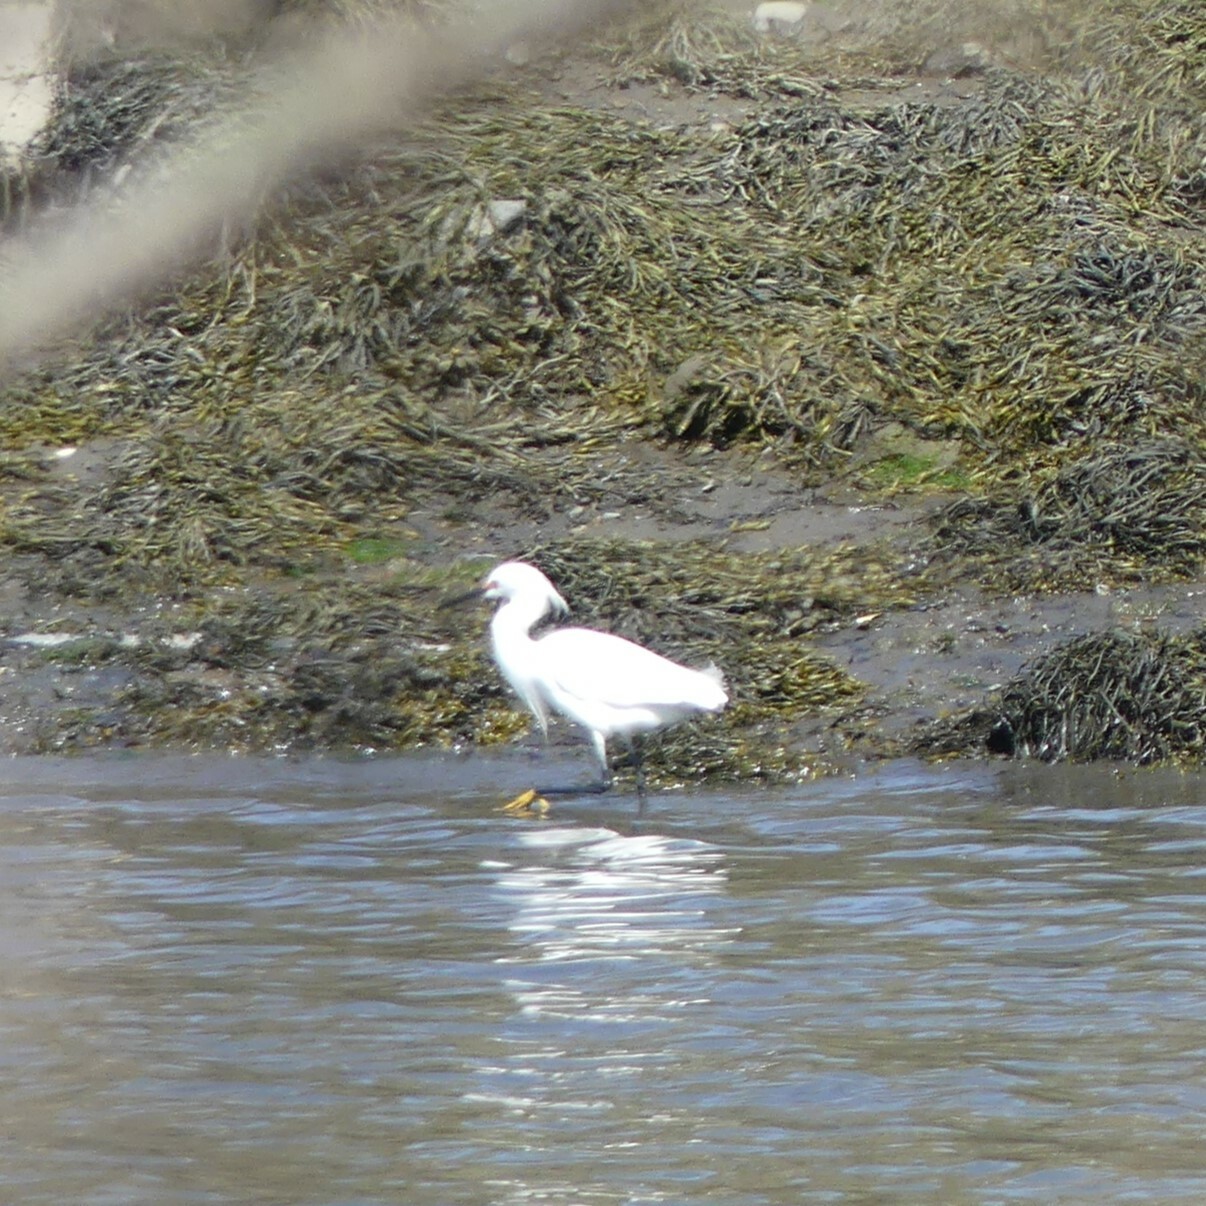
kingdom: Animalia
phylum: Chordata
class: Aves
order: Pelecaniformes
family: Ardeidae
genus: Egretta
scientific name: Egretta thula
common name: Snowy egret
